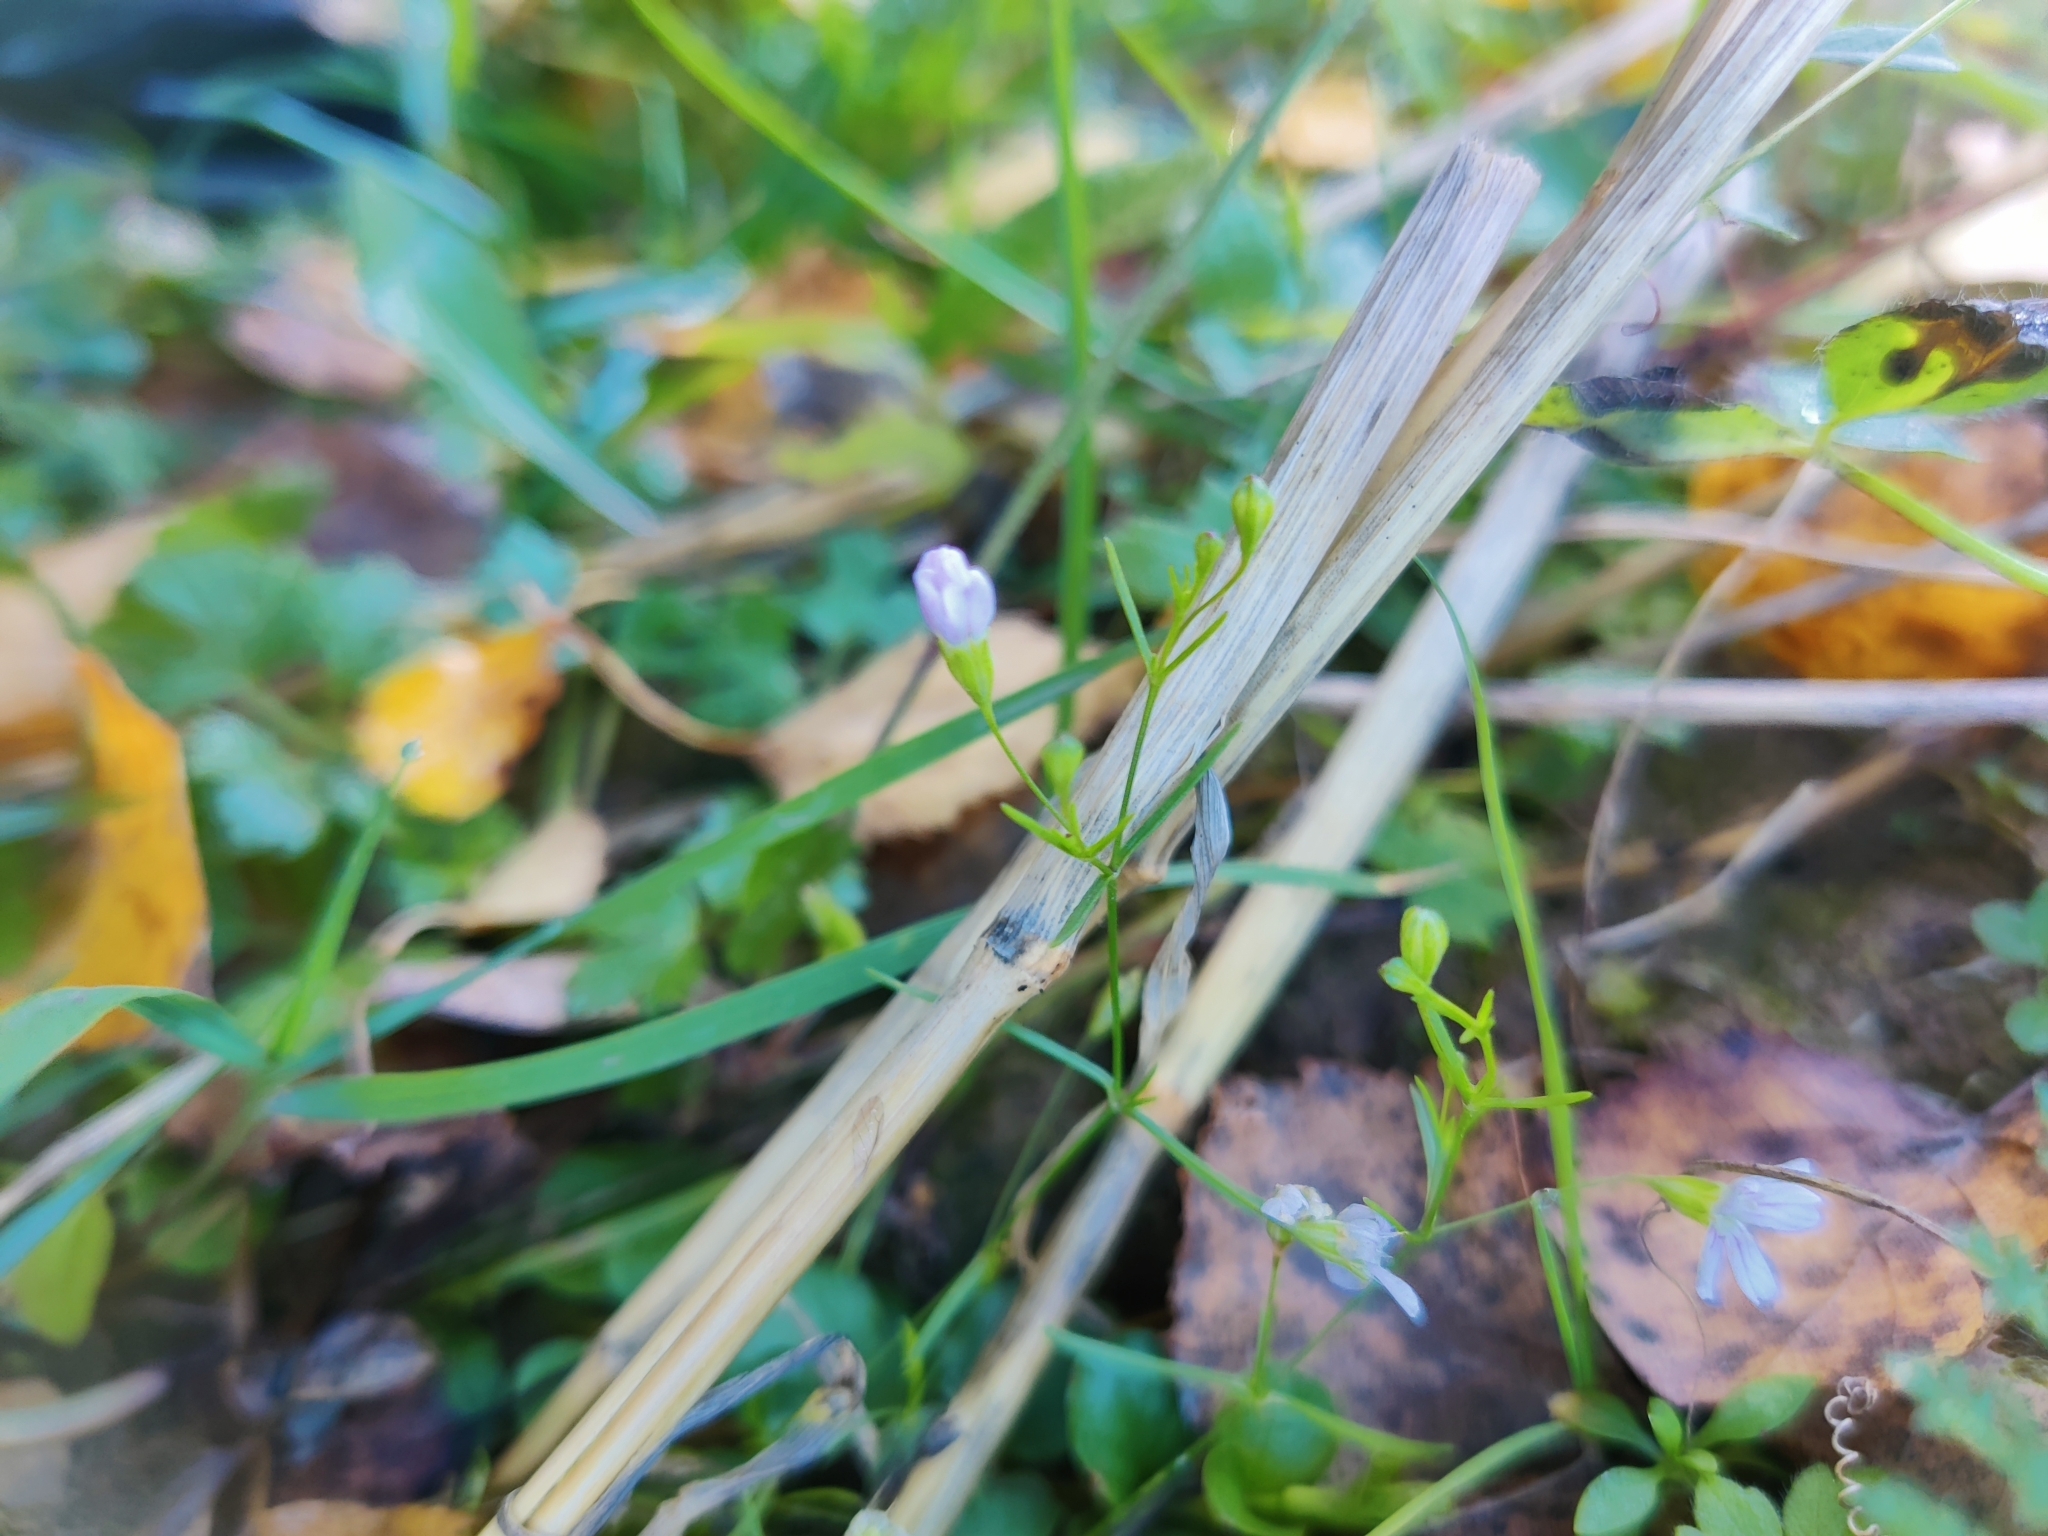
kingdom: Plantae
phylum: Tracheophyta
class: Magnoliopsida
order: Caryophyllales
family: Caryophyllaceae
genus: Psammophiliella
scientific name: Psammophiliella muralis
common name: Cushion baby's-breath
